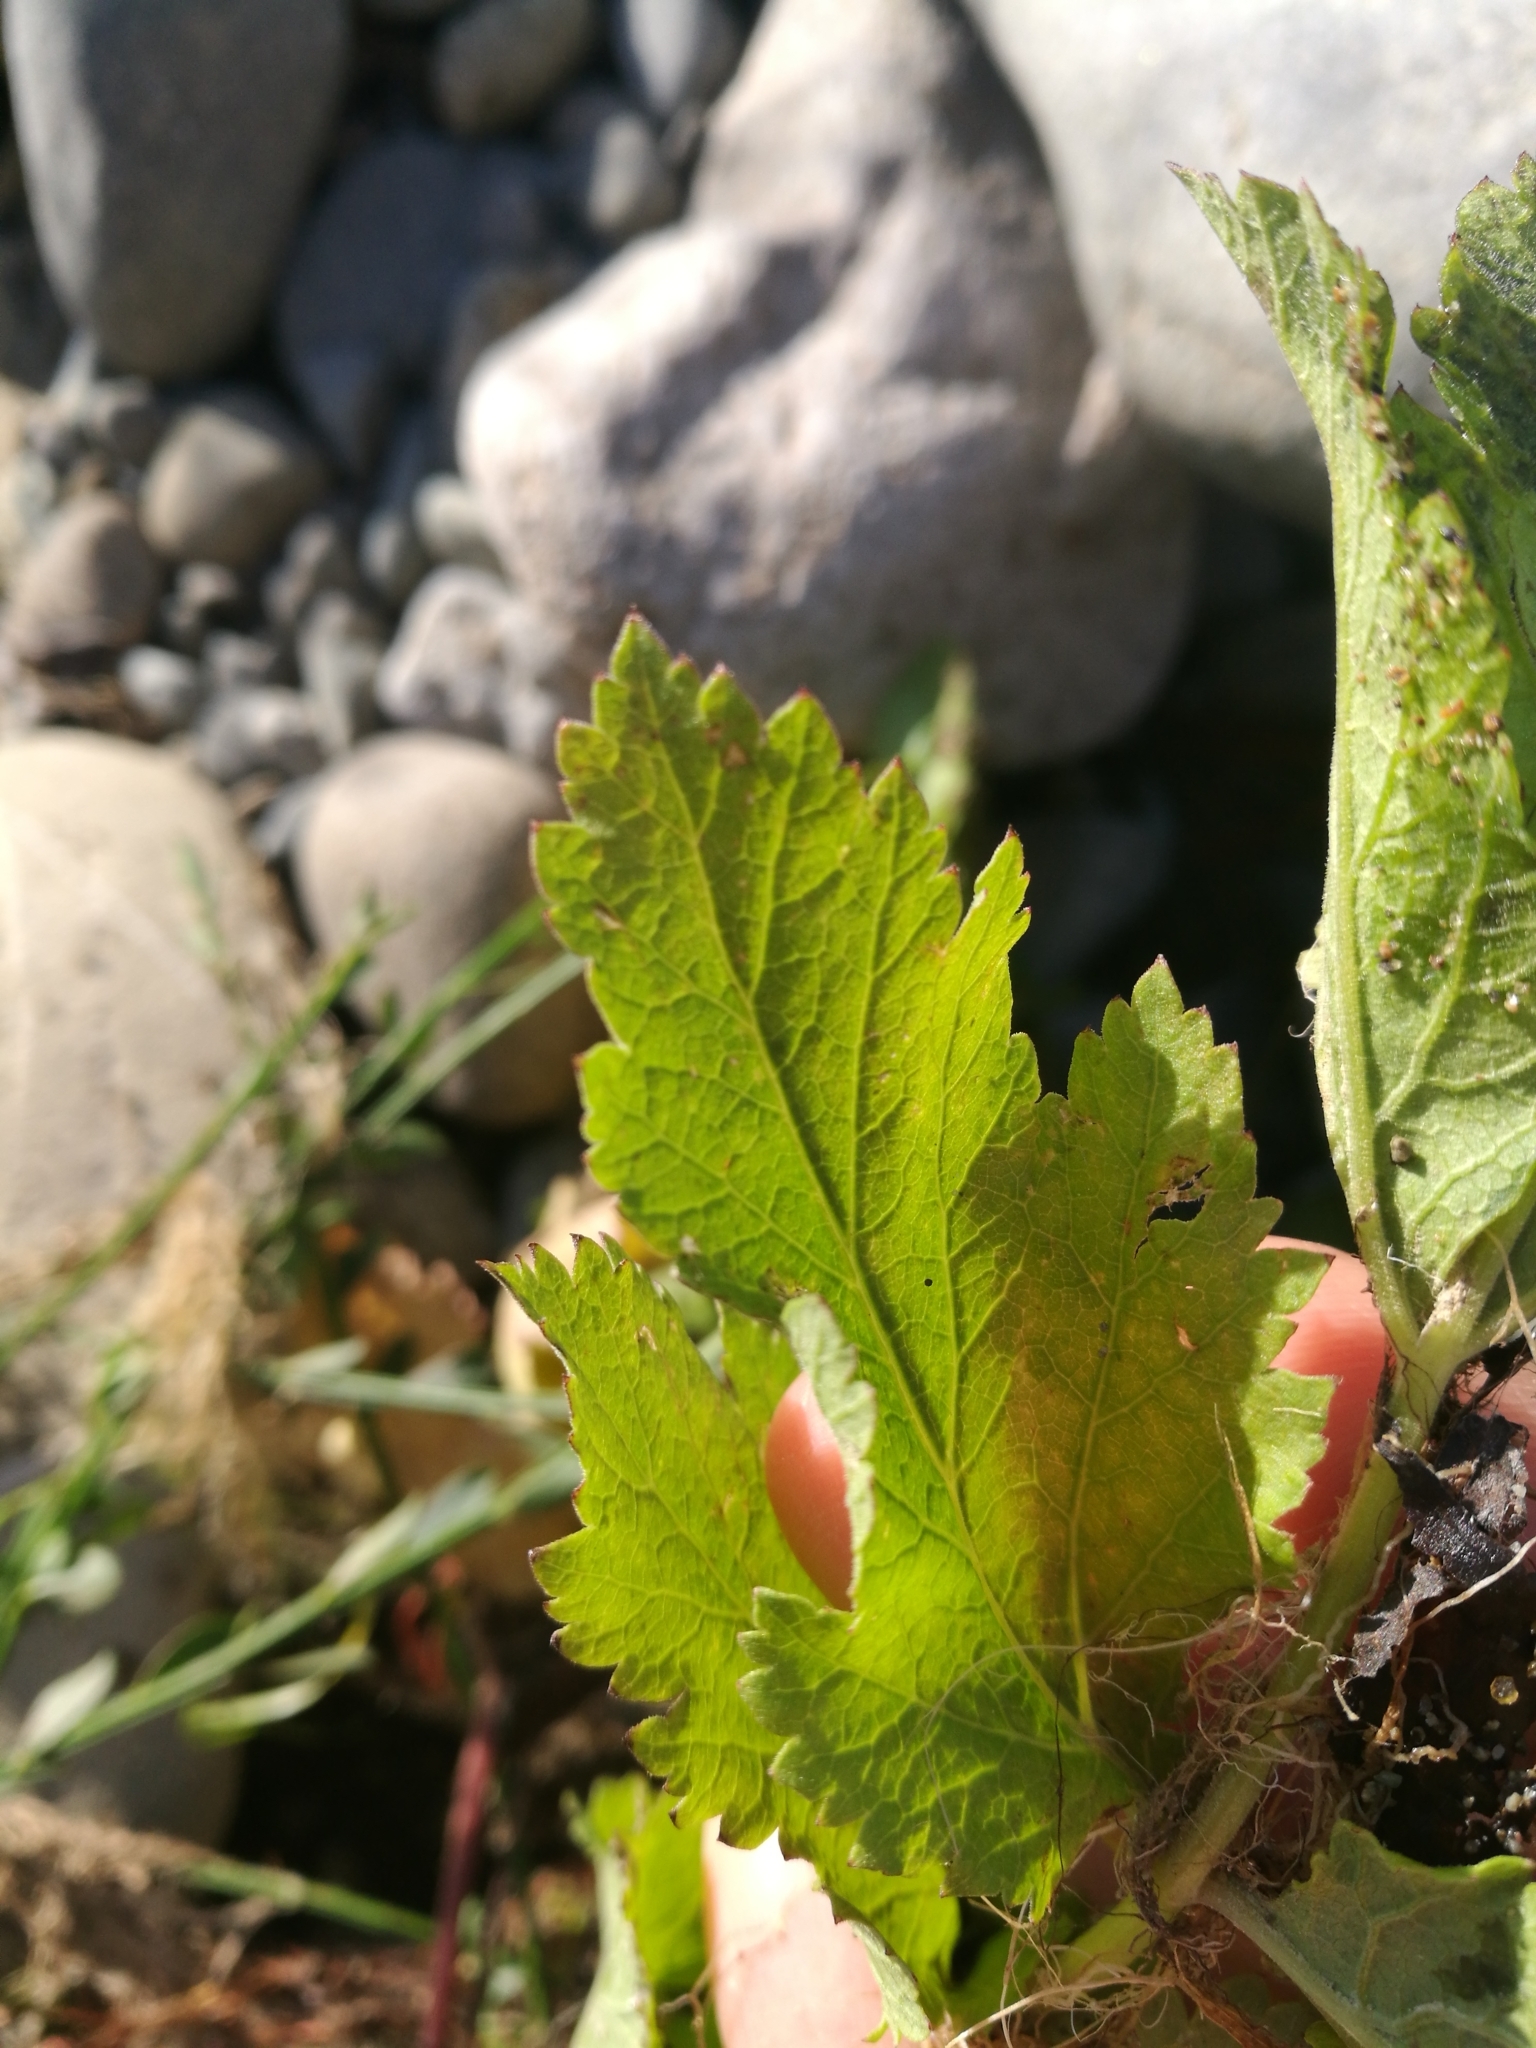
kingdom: Plantae
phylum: Tracheophyta
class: Magnoliopsida
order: Apiales
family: Apiaceae
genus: Pastinaca
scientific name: Pastinaca sativa
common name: Wild parsnip
